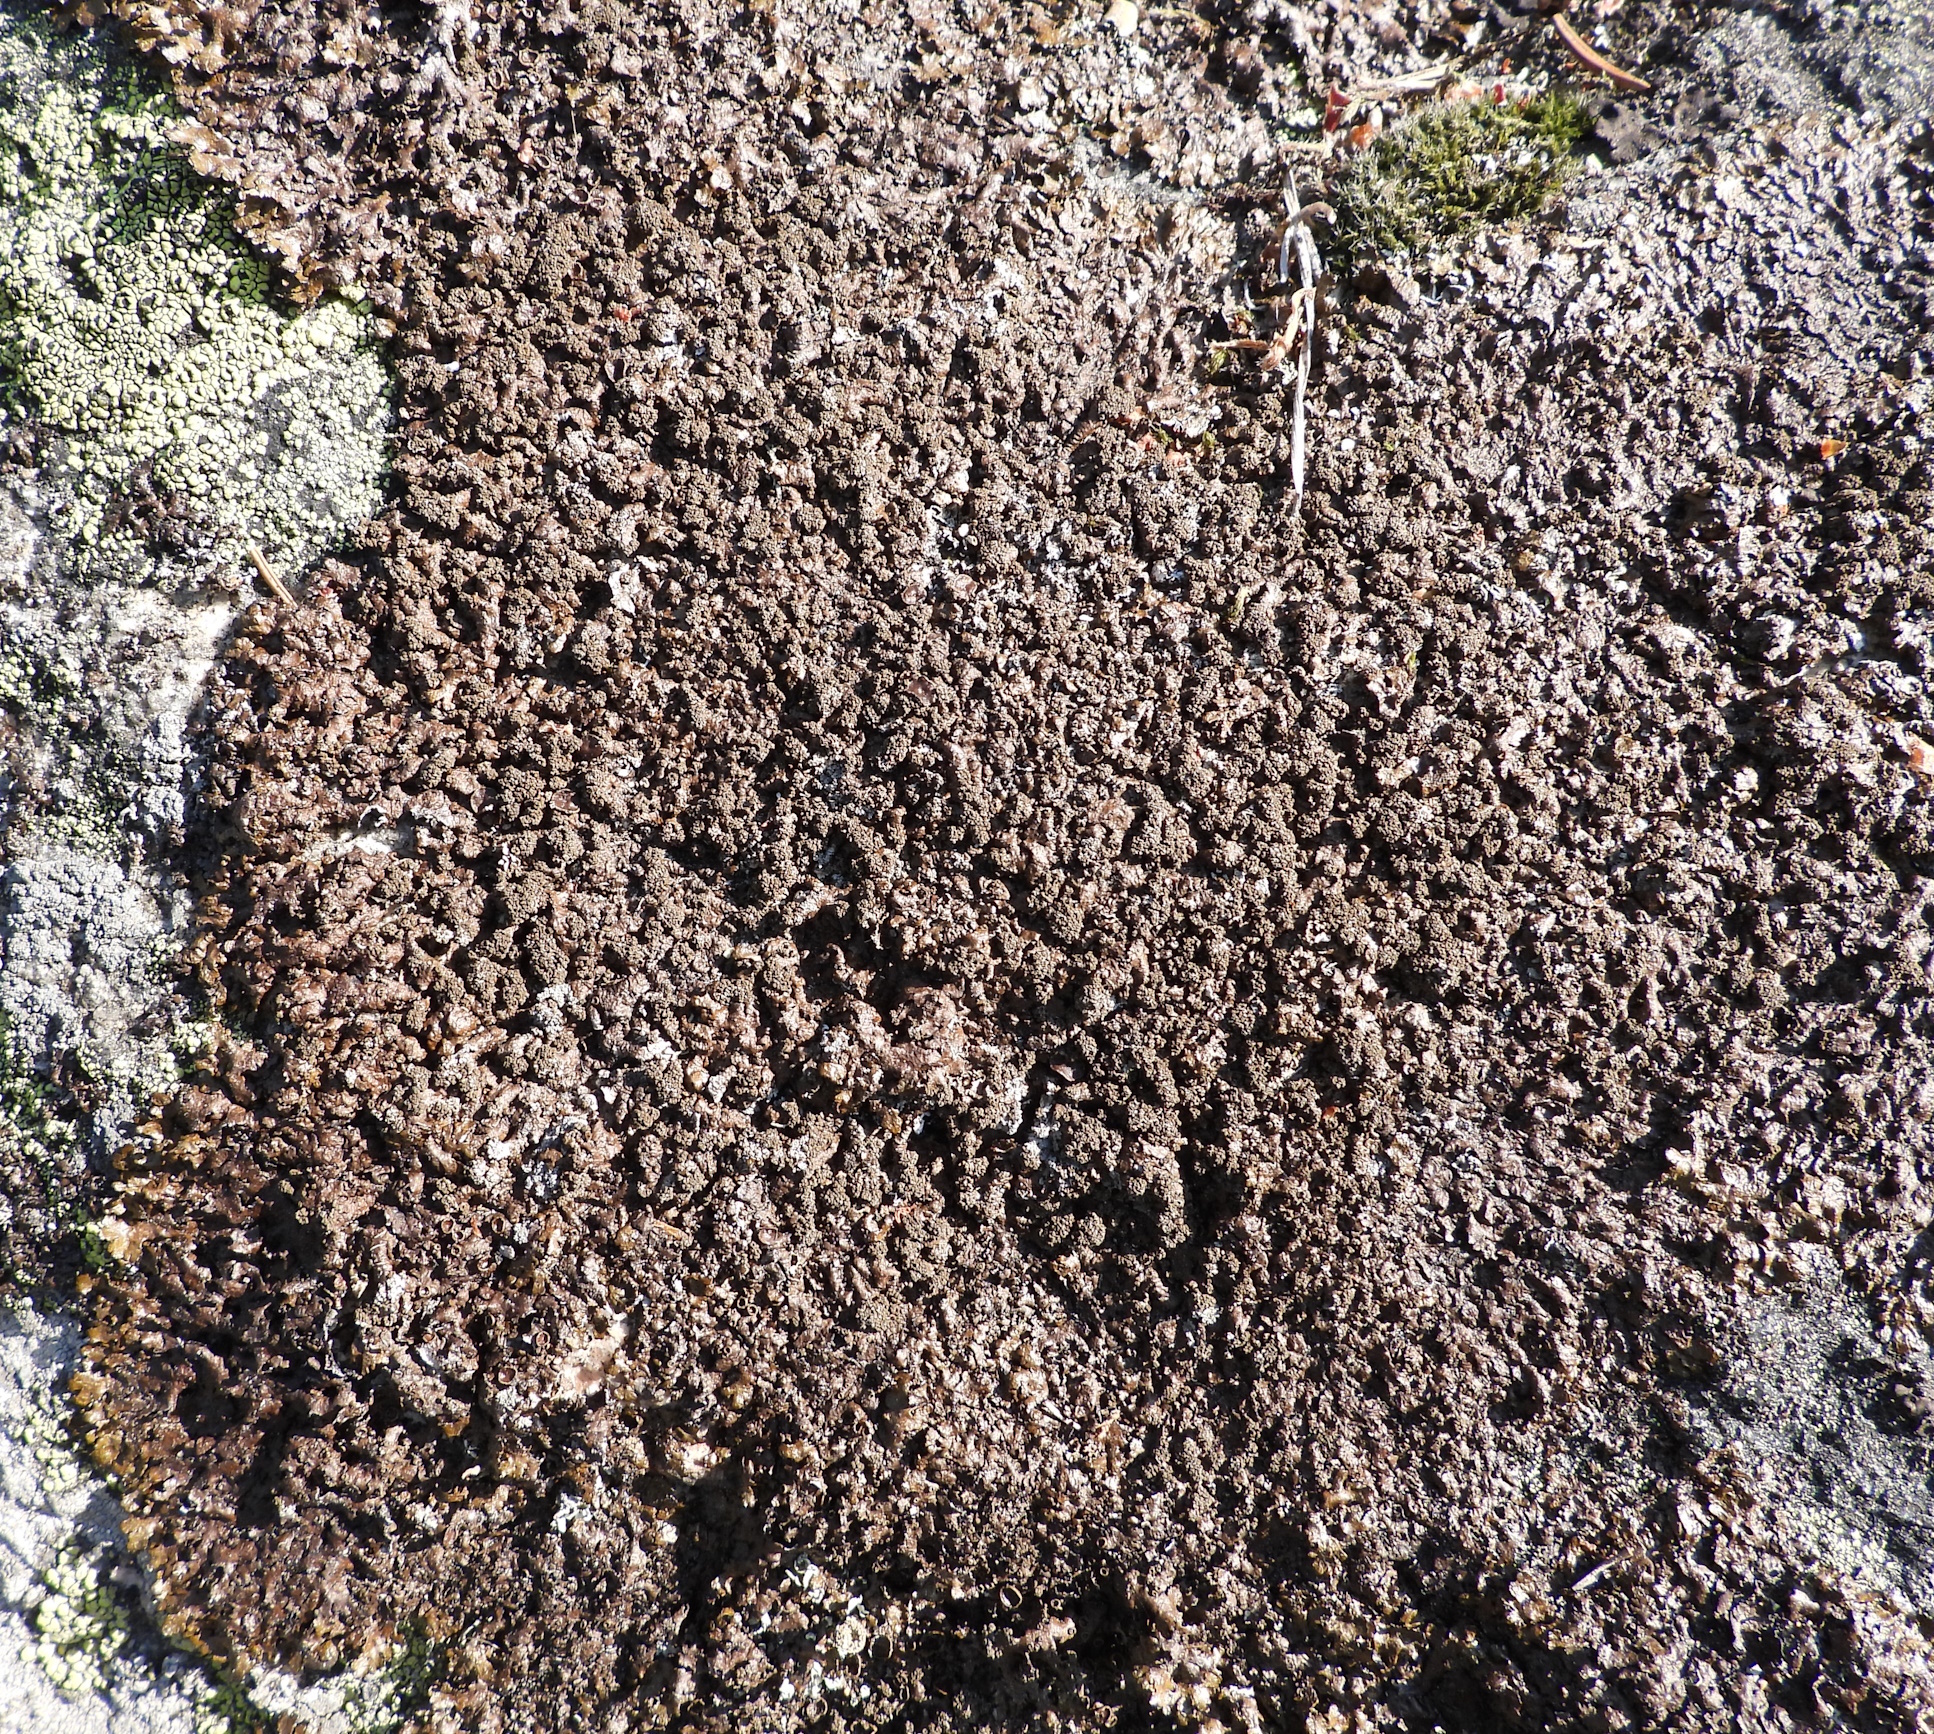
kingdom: Fungi
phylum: Ascomycota
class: Lecanoromycetes
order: Lecanorales
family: Parmeliaceae
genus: Xanthoparmelia
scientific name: Xanthoparmelia loxodes
